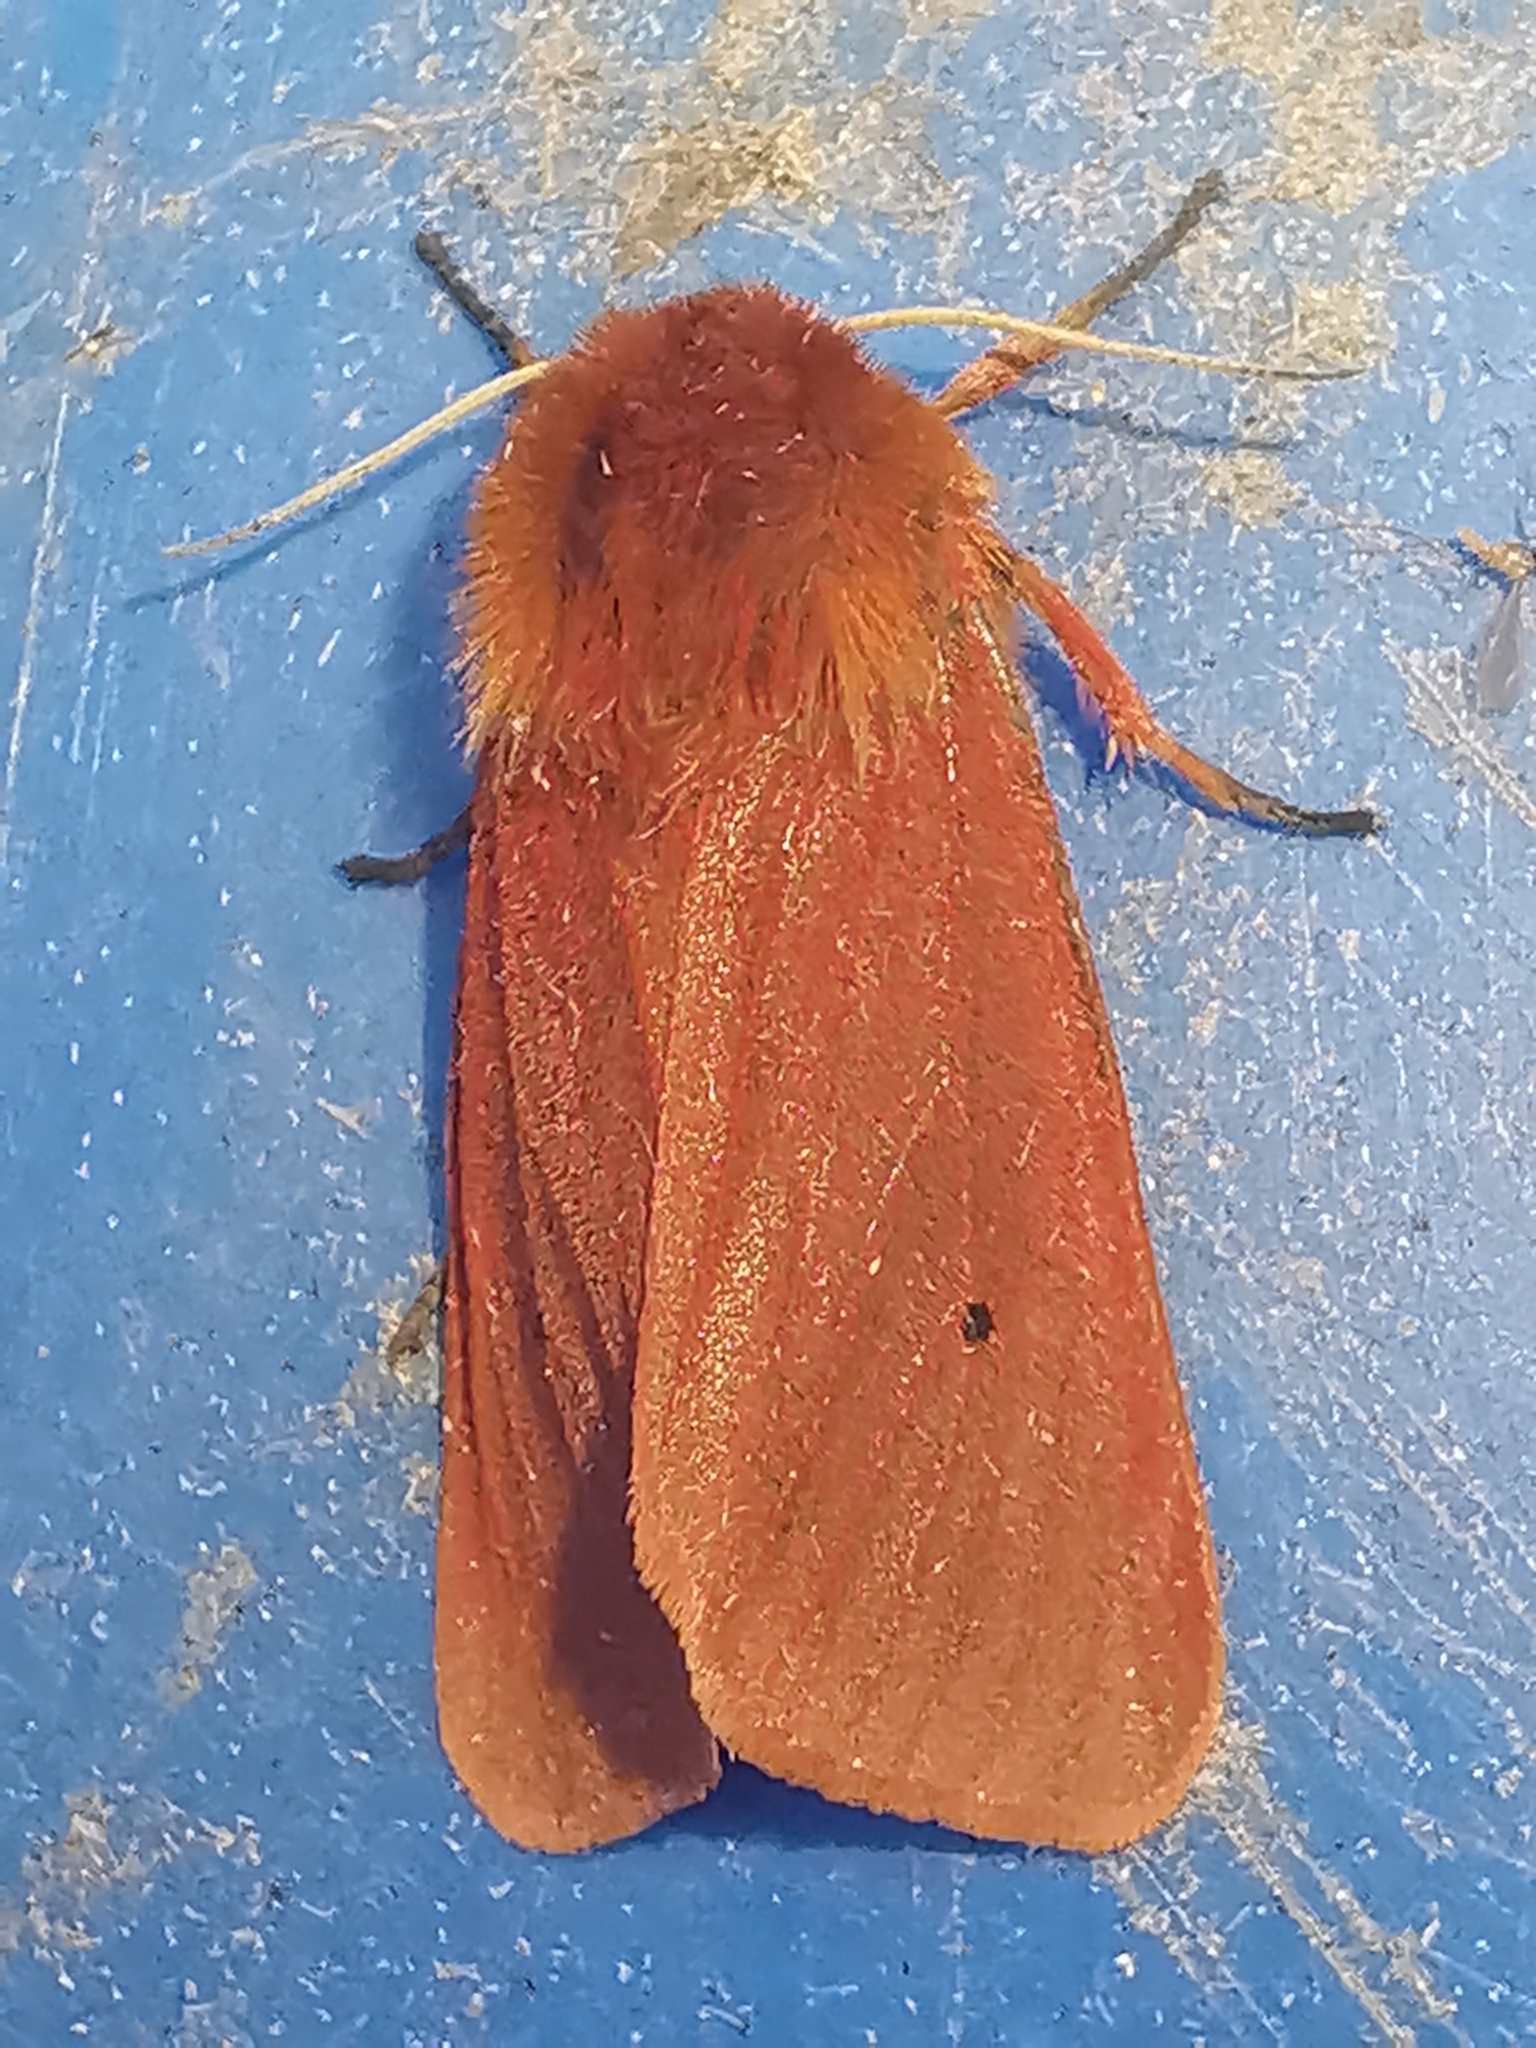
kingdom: Animalia
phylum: Arthropoda
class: Insecta
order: Lepidoptera
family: Erebidae
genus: Phragmatobia
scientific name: Phragmatobia fuliginosa
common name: Ruby tiger
